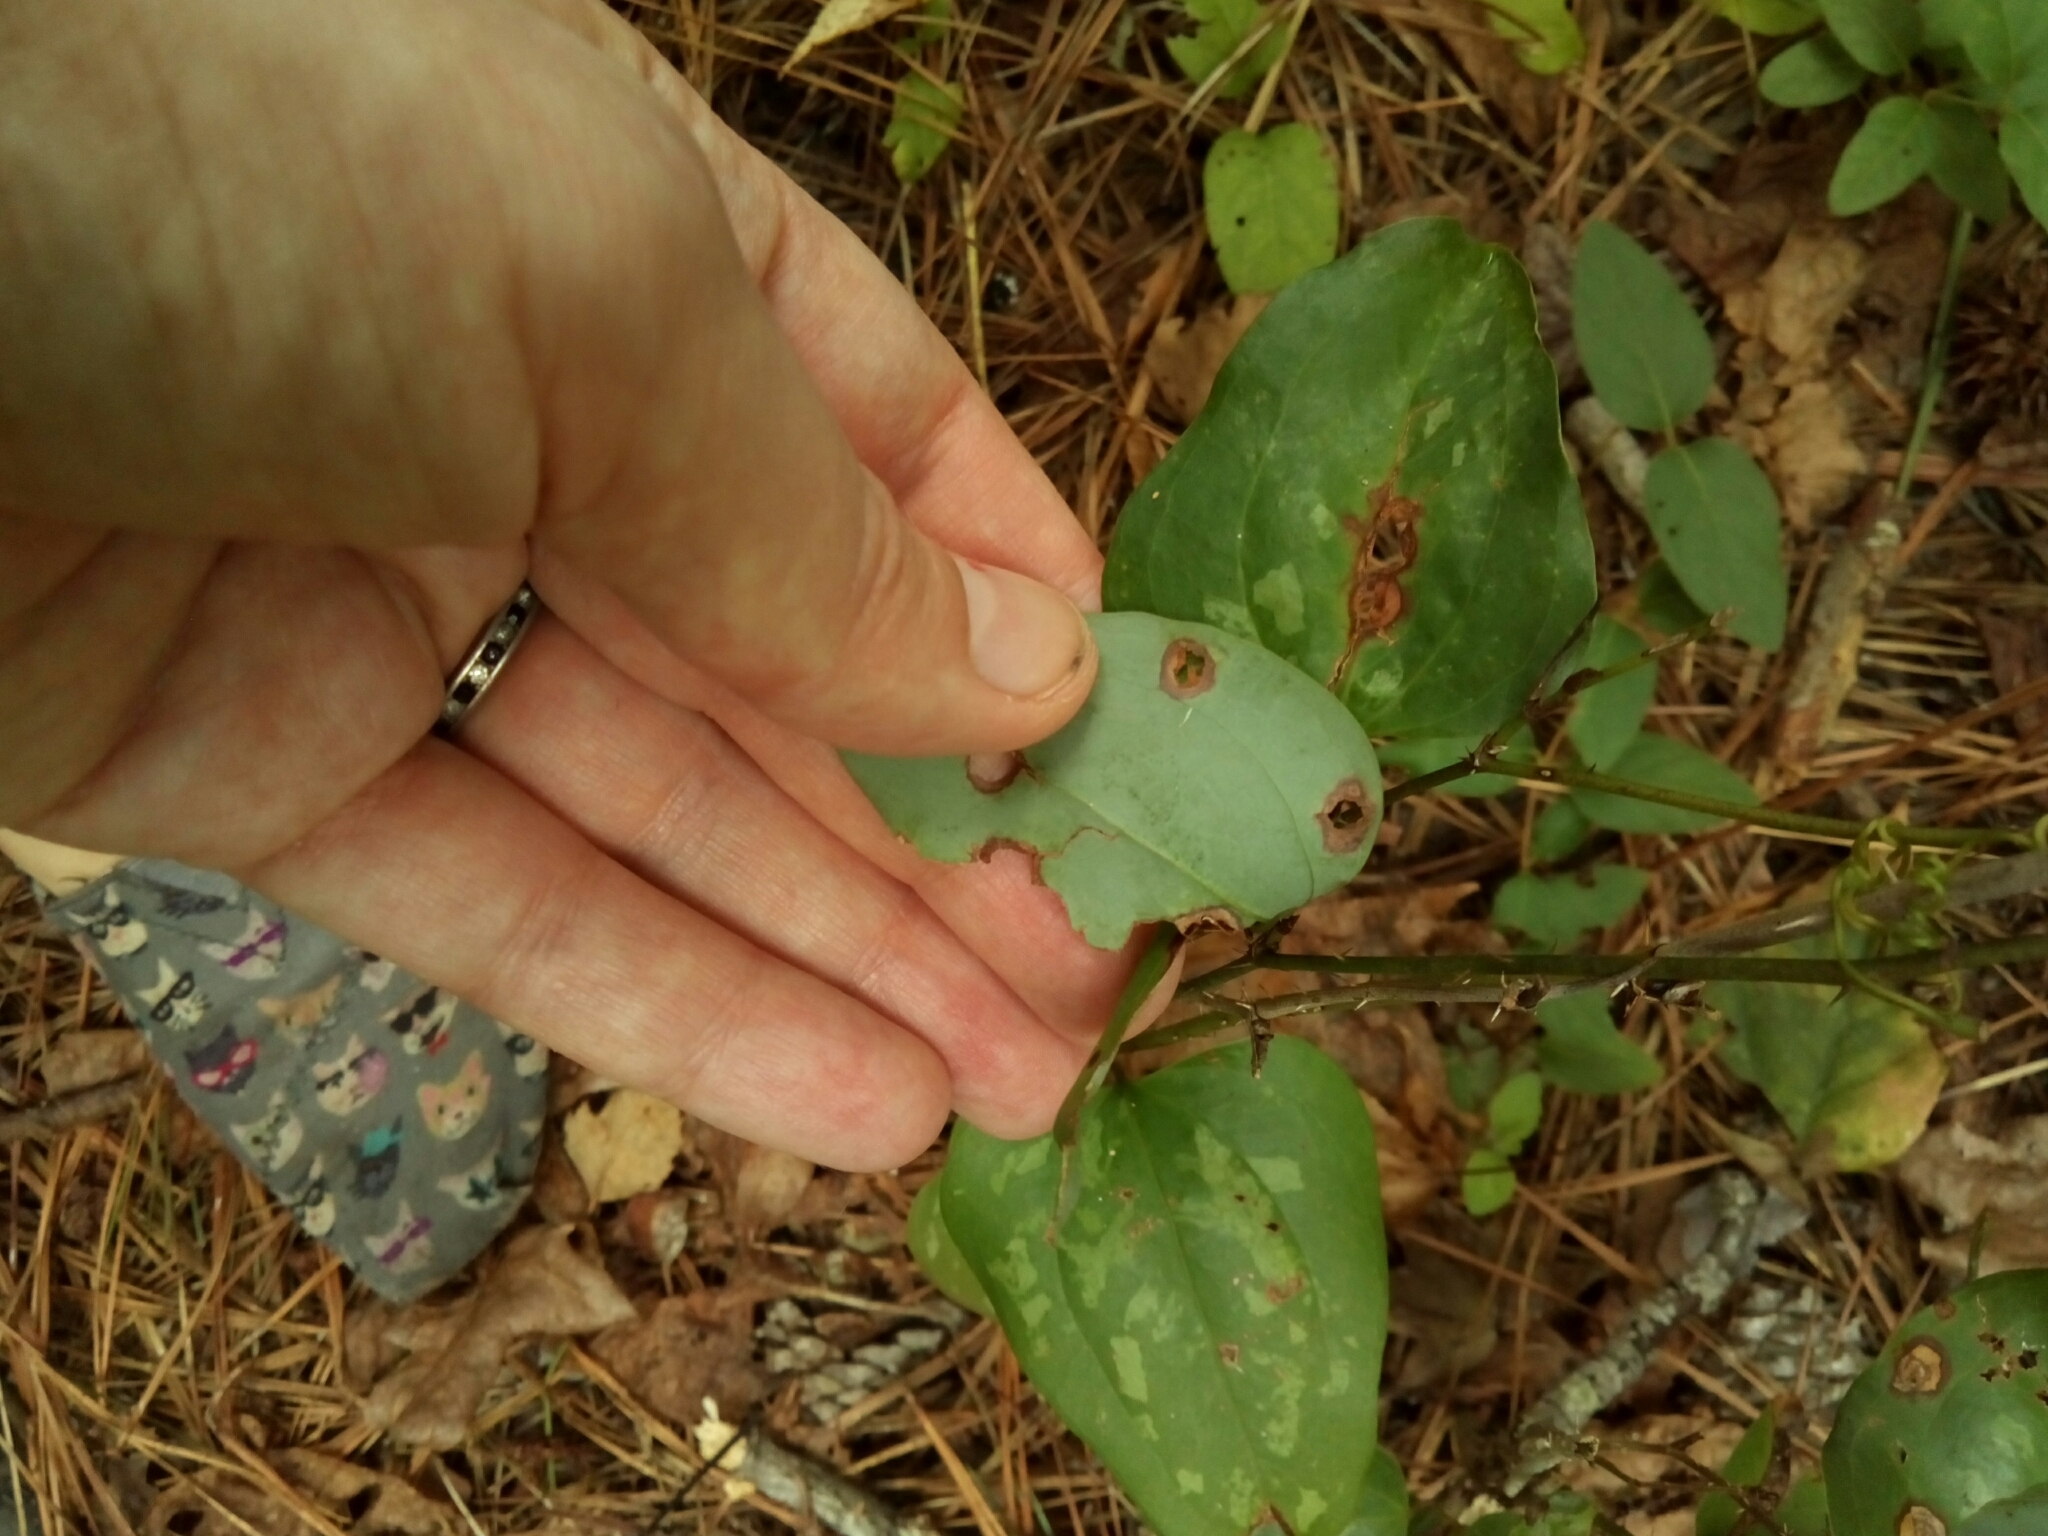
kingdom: Plantae
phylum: Tracheophyta
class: Liliopsida
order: Liliales
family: Smilacaceae
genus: Smilax
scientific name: Smilax glauca
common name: Cat greenbrier
